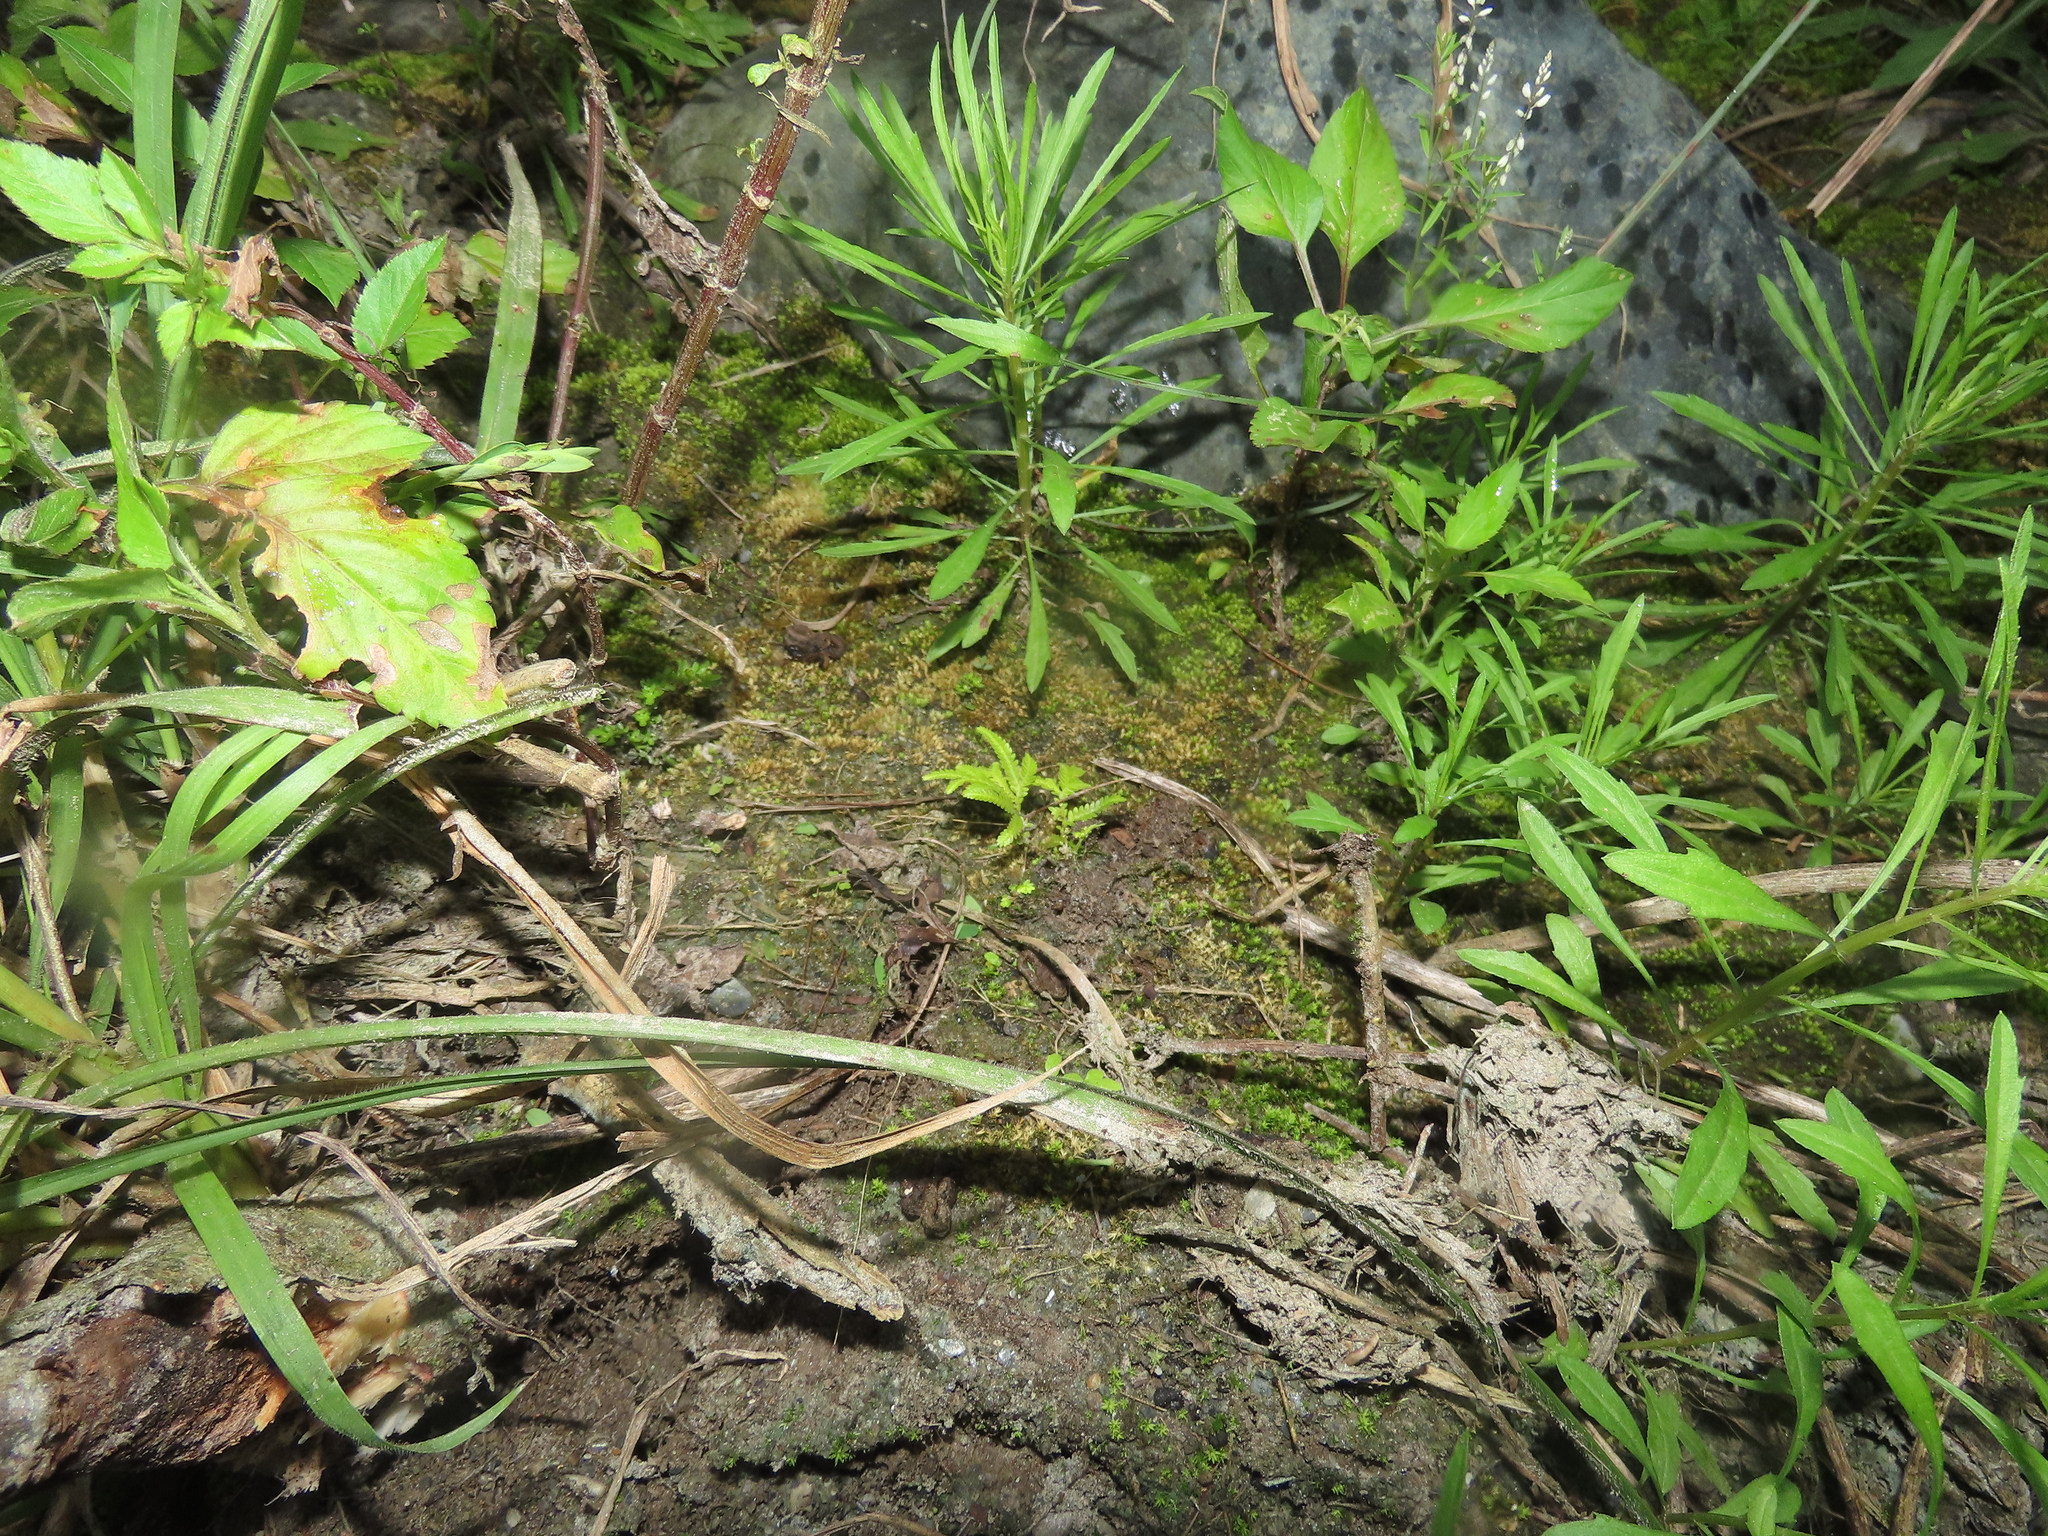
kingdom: Plantae
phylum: Tracheophyta
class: Lycopodiopsida
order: Selaginellales
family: Selaginellaceae
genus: Selaginella
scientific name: Selaginella delicatula
